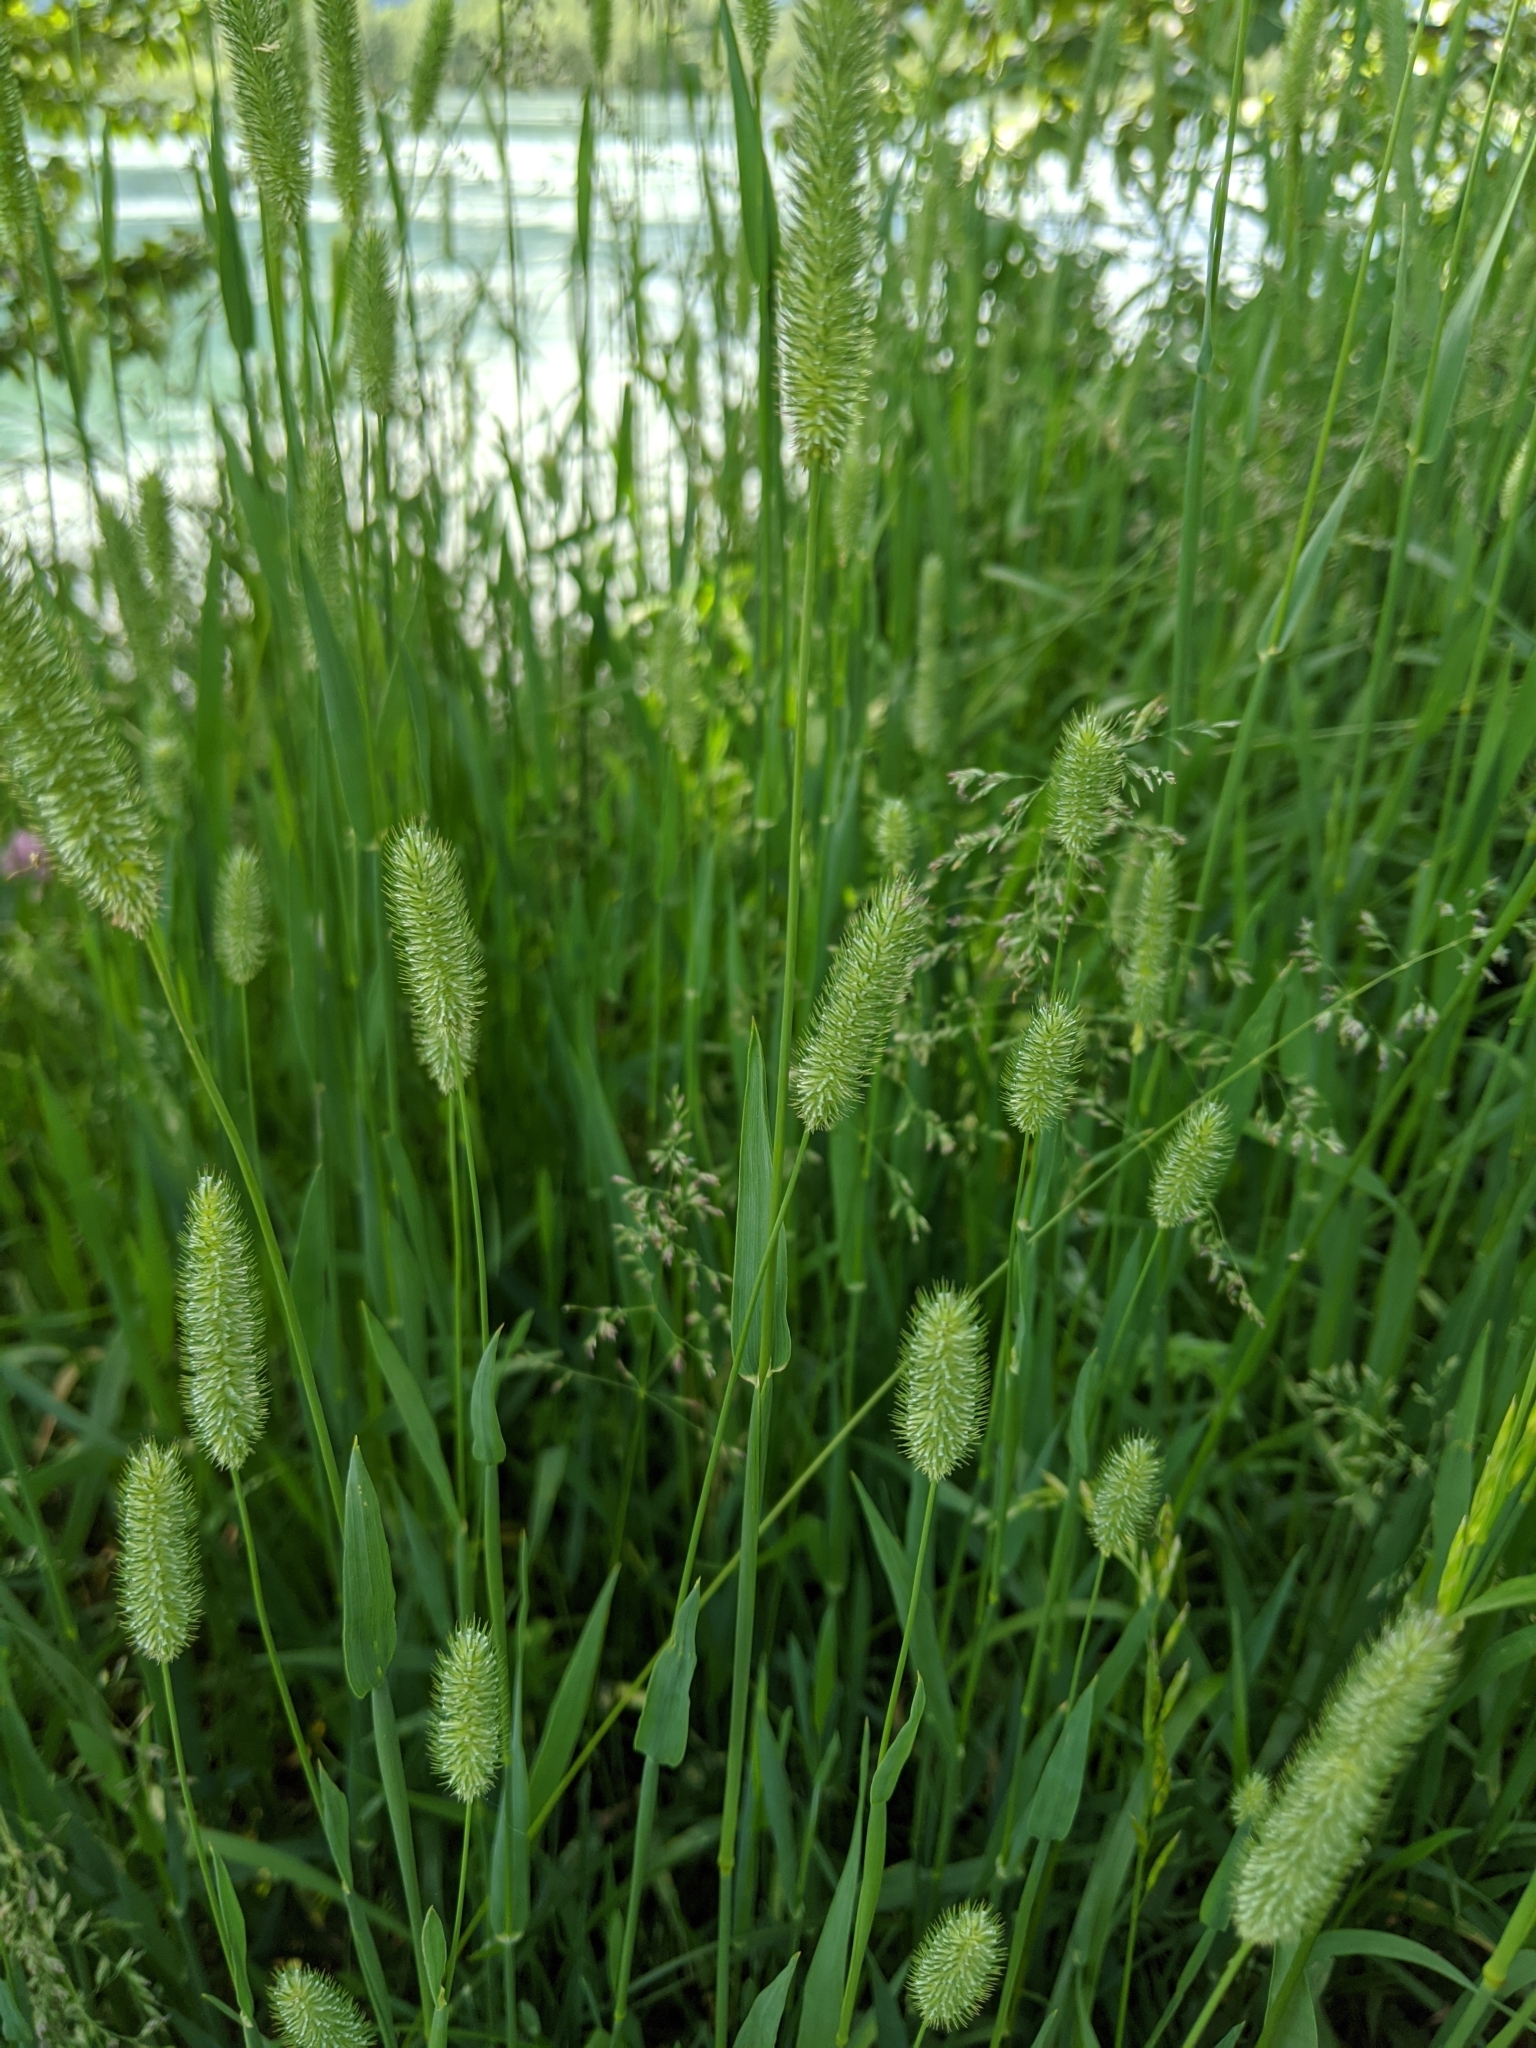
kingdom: Plantae
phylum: Tracheophyta
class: Liliopsida
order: Poales
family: Poaceae
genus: Phleum
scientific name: Phleum pratense
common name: Timothy grass
